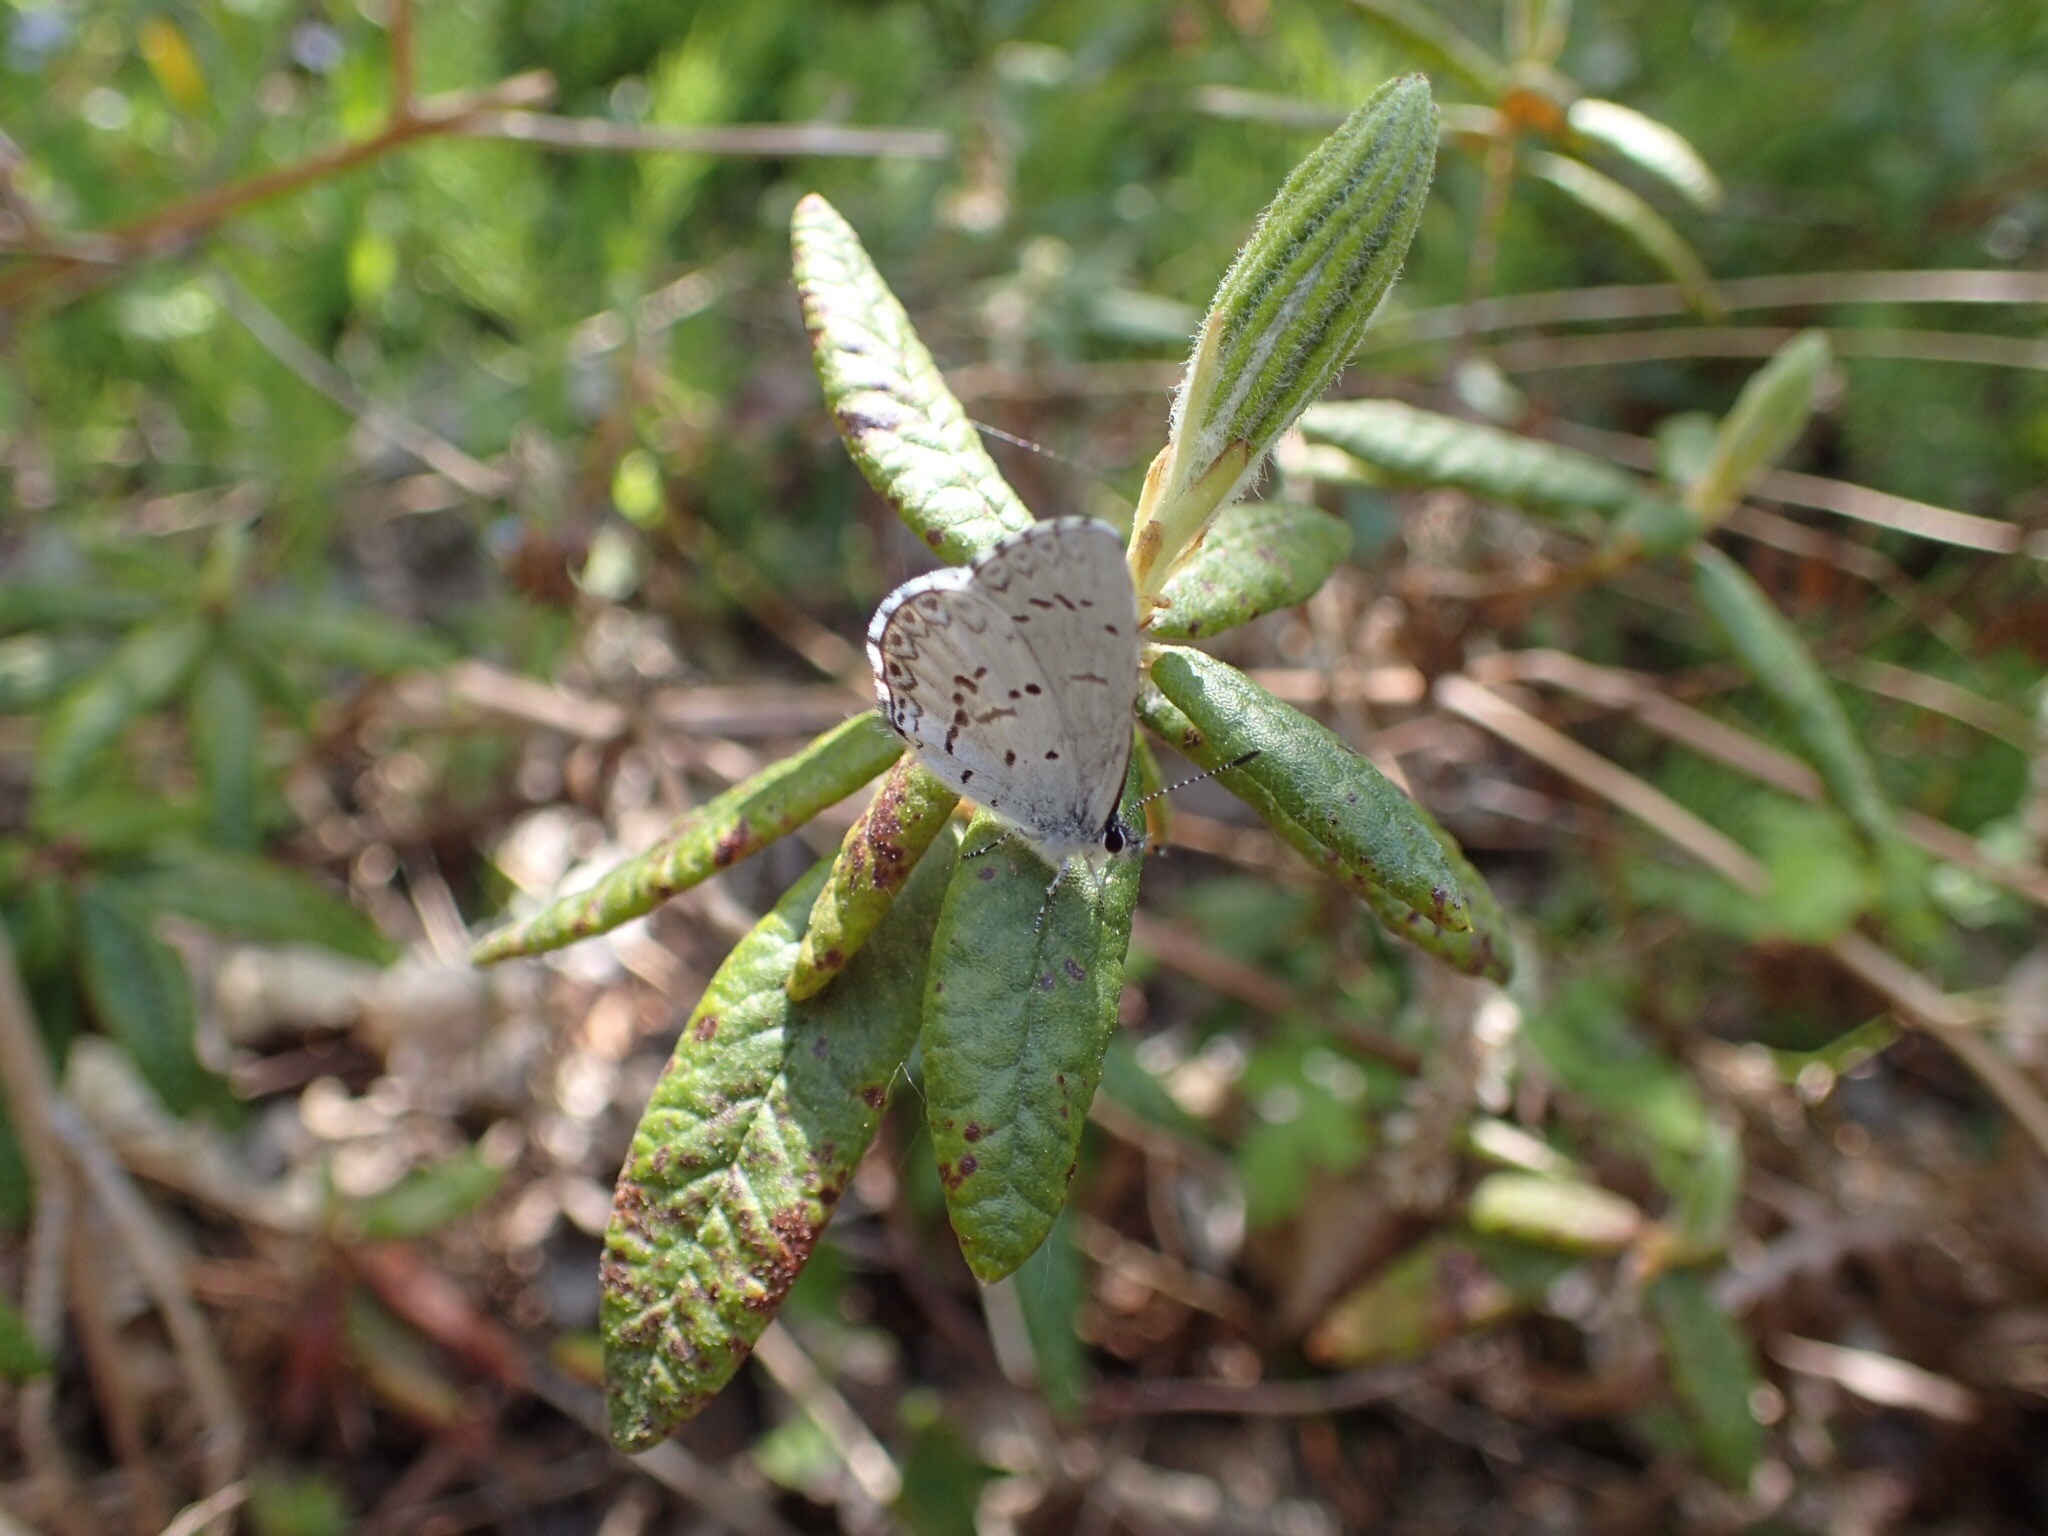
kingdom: Animalia
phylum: Arthropoda
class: Insecta
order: Lepidoptera
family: Lycaenidae
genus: Celastrina
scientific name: Celastrina lucia
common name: Lucia azure
